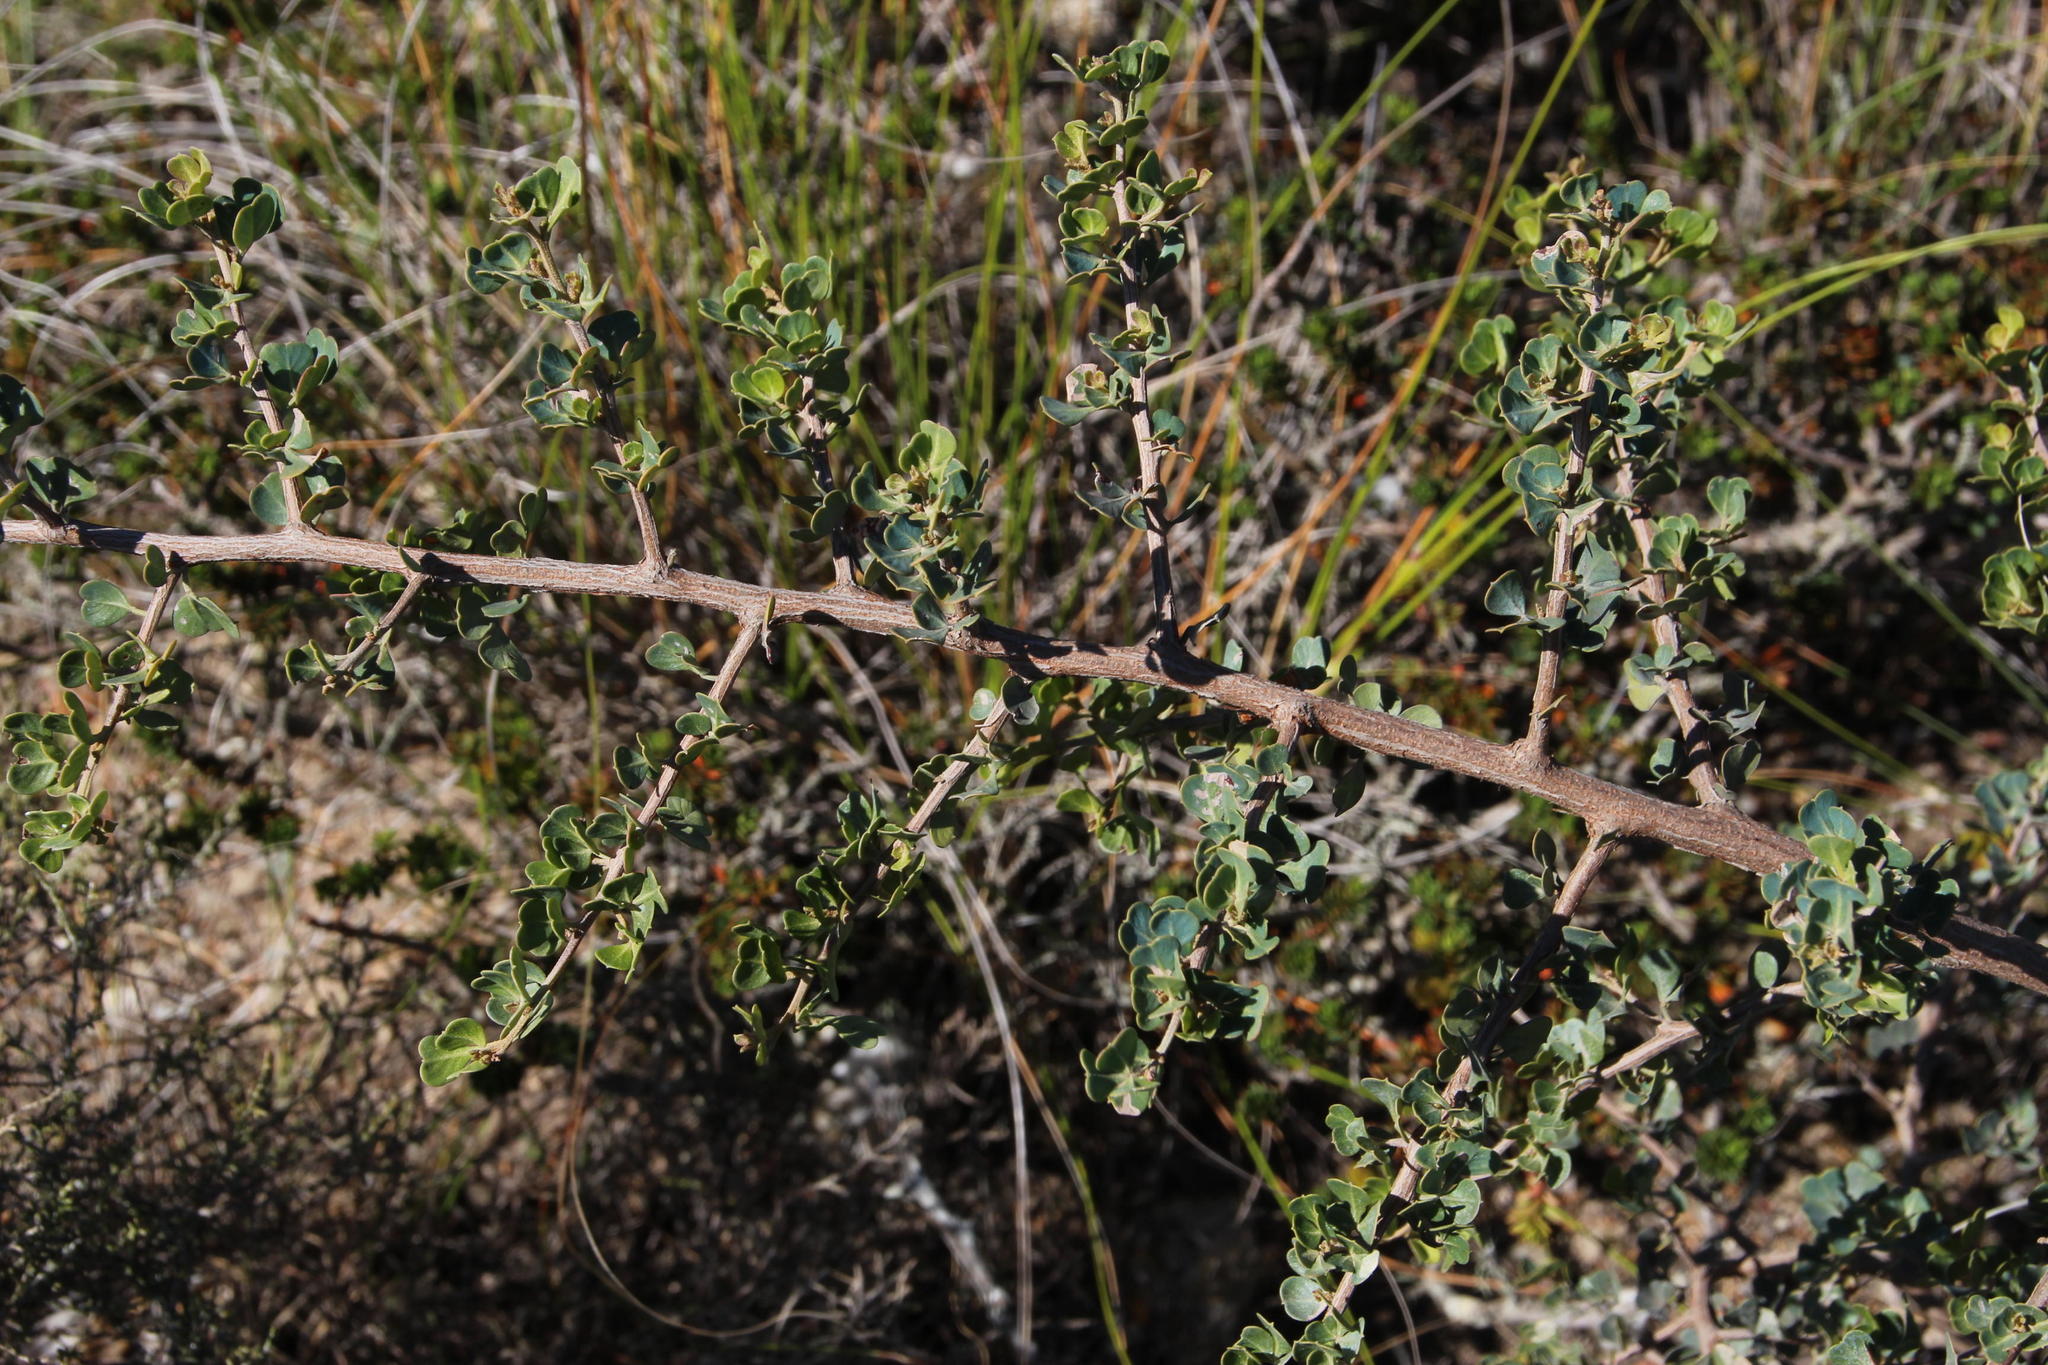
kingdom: Plantae
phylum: Tracheophyta
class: Magnoliopsida
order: Sapindales
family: Anacardiaceae
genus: Searsia
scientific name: Searsia glauca
